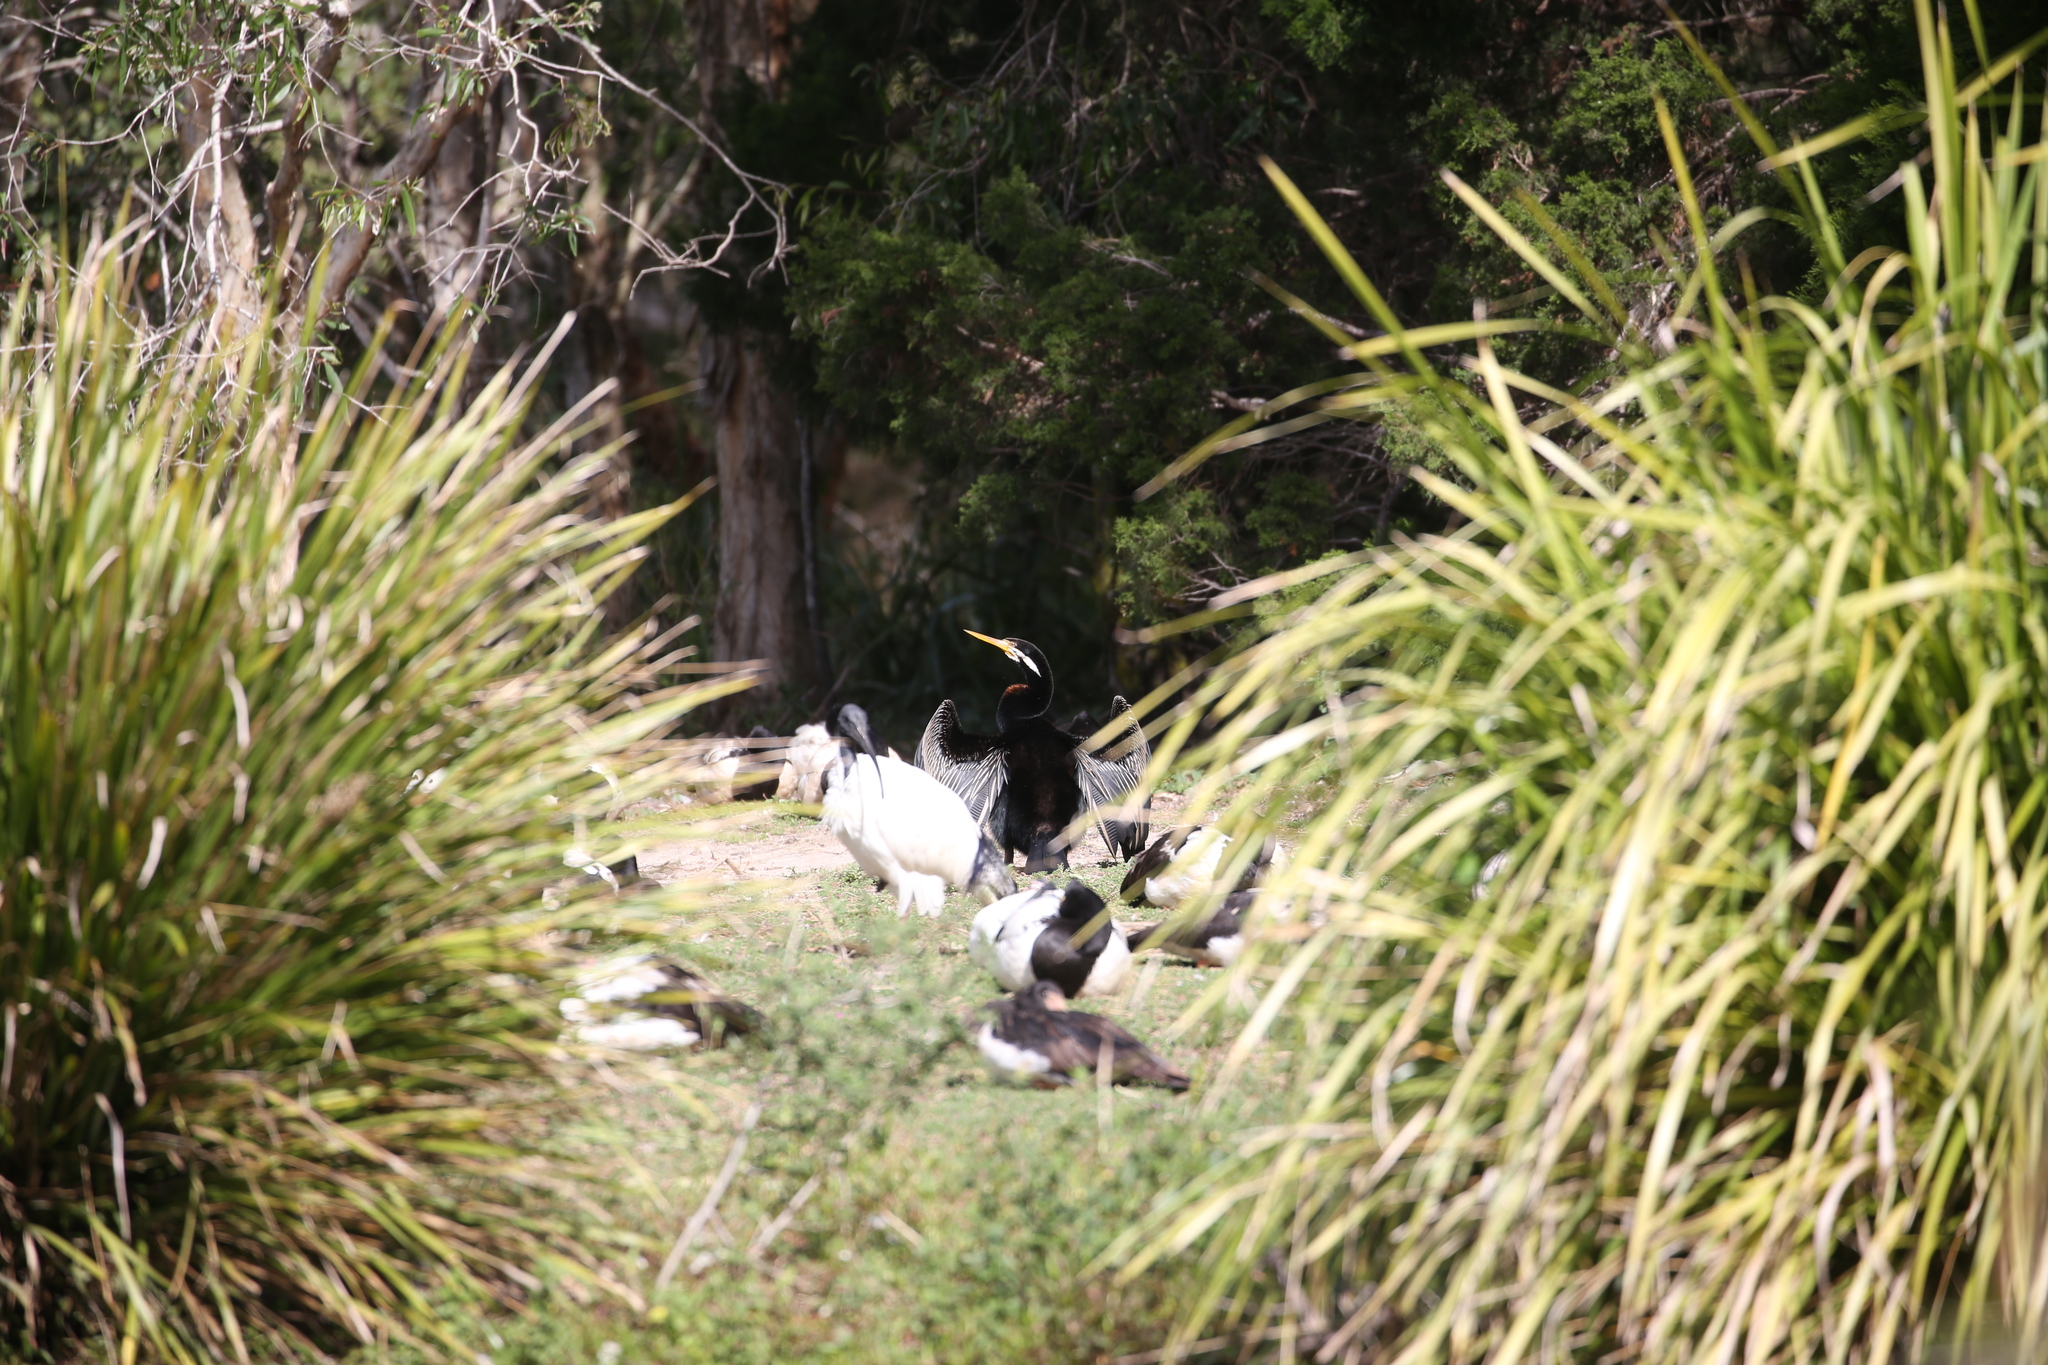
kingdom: Animalia
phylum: Chordata
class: Aves
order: Suliformes
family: Anhingidae
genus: Anhinga
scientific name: Anhinga novaehollandiae
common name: Australasian darter
